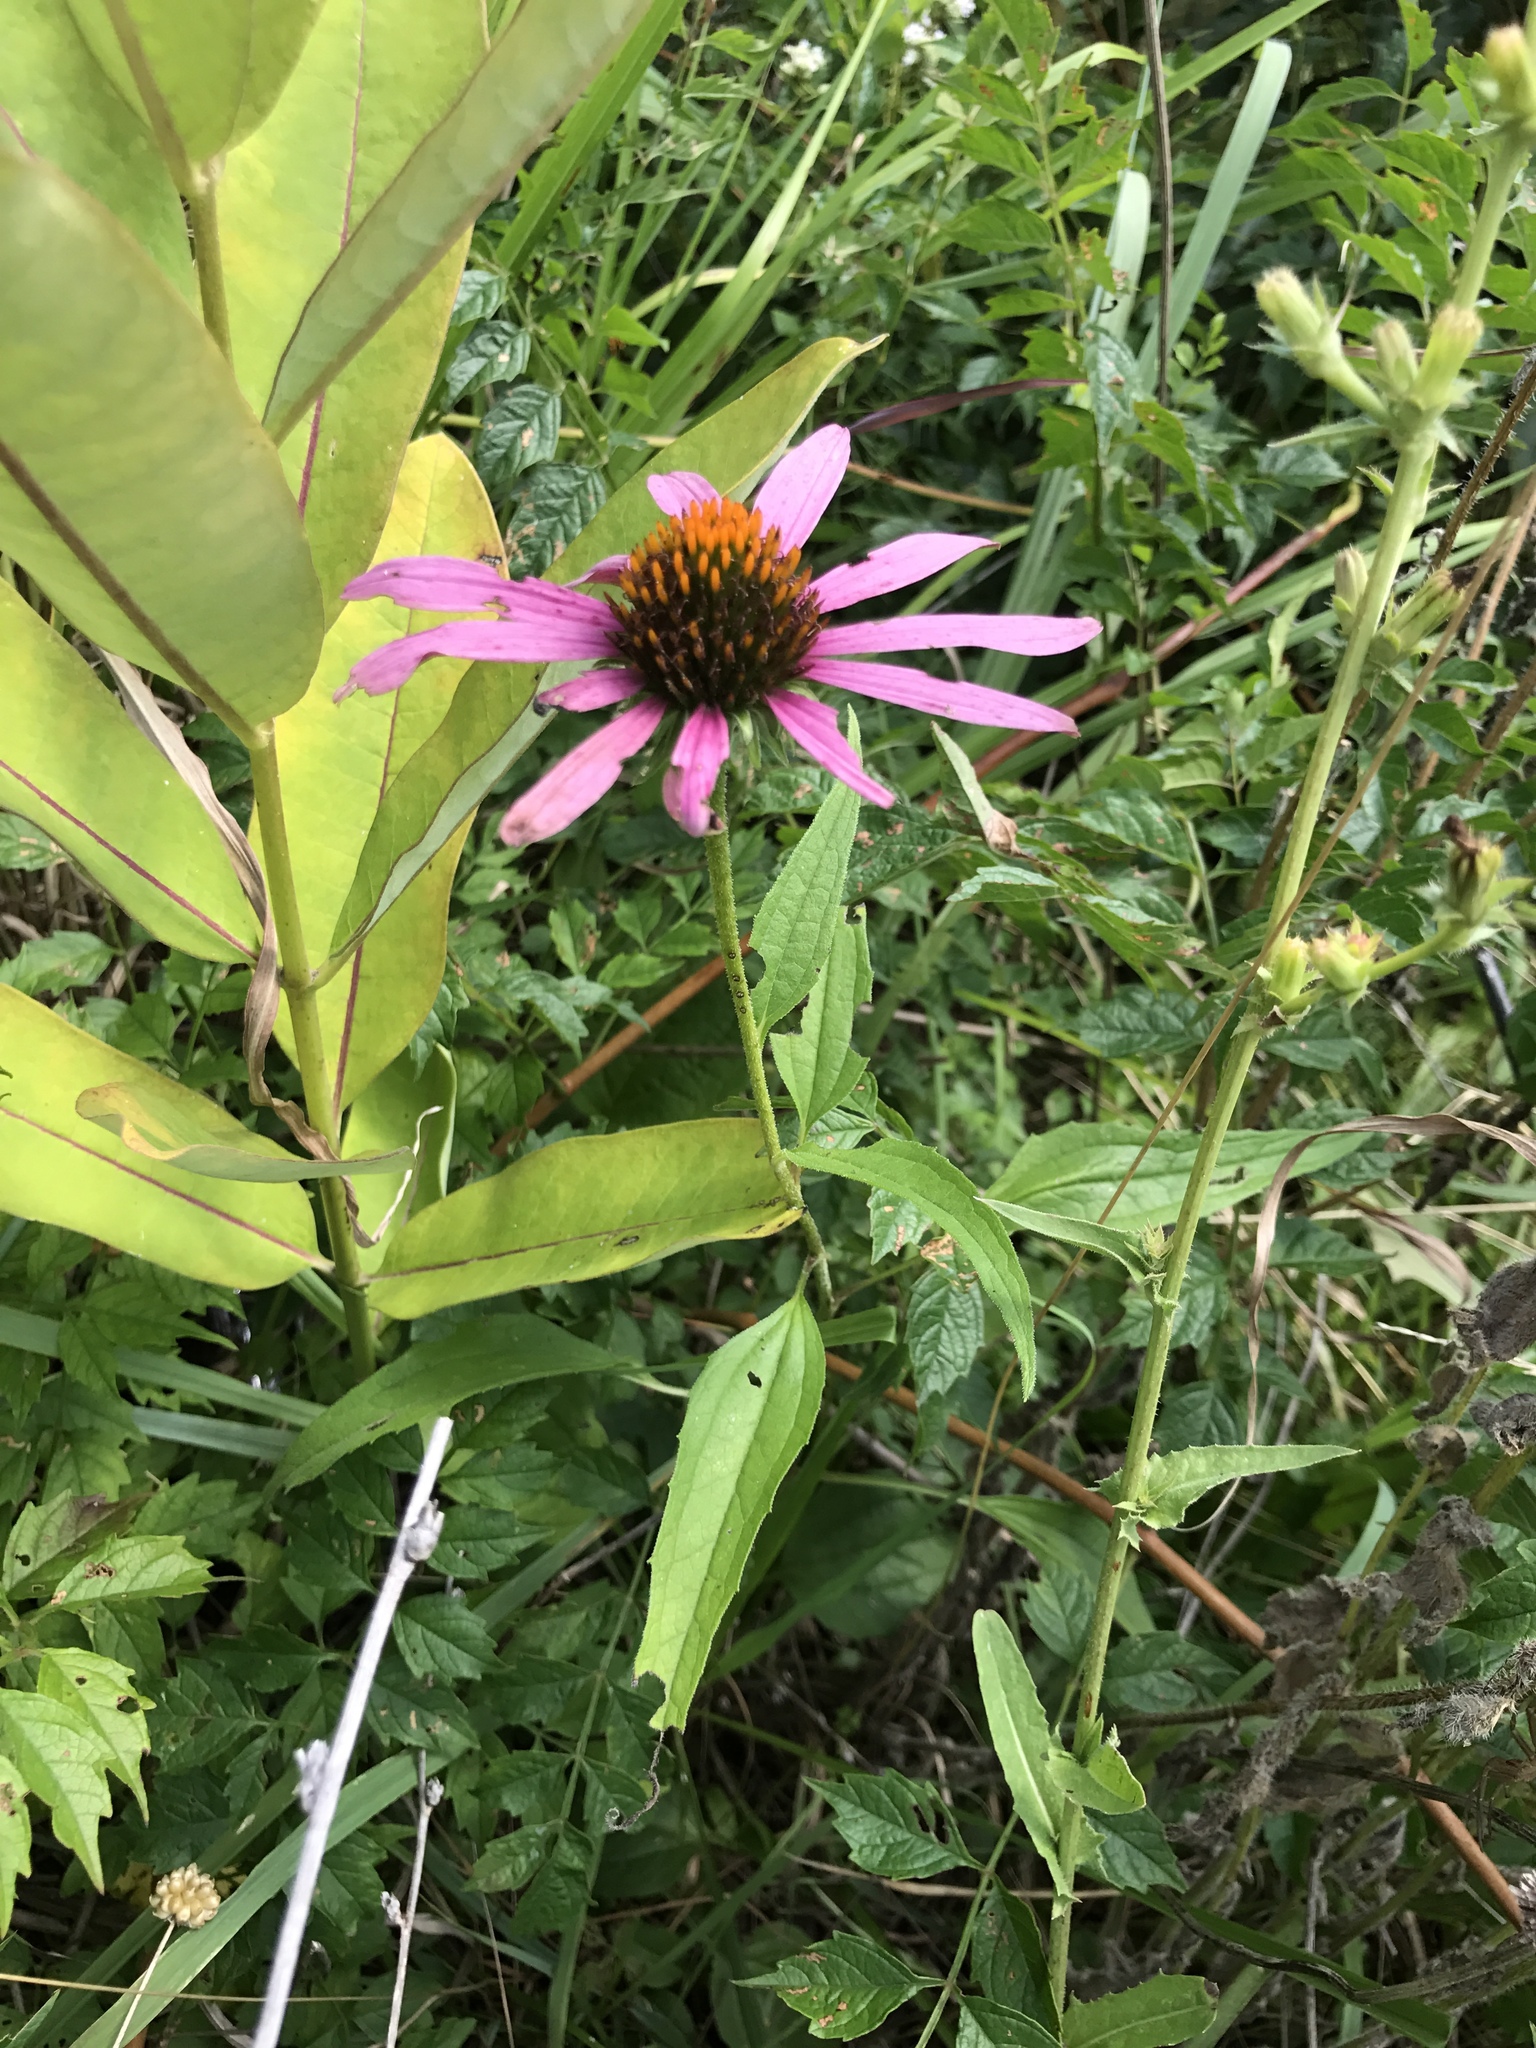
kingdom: Plantae
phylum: Tracheophyta
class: Magnoliopsida
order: Asterales
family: Asteraceae
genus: Echinacea
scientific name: Echinacea purpurea
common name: Broad-leaved purple coneflower
